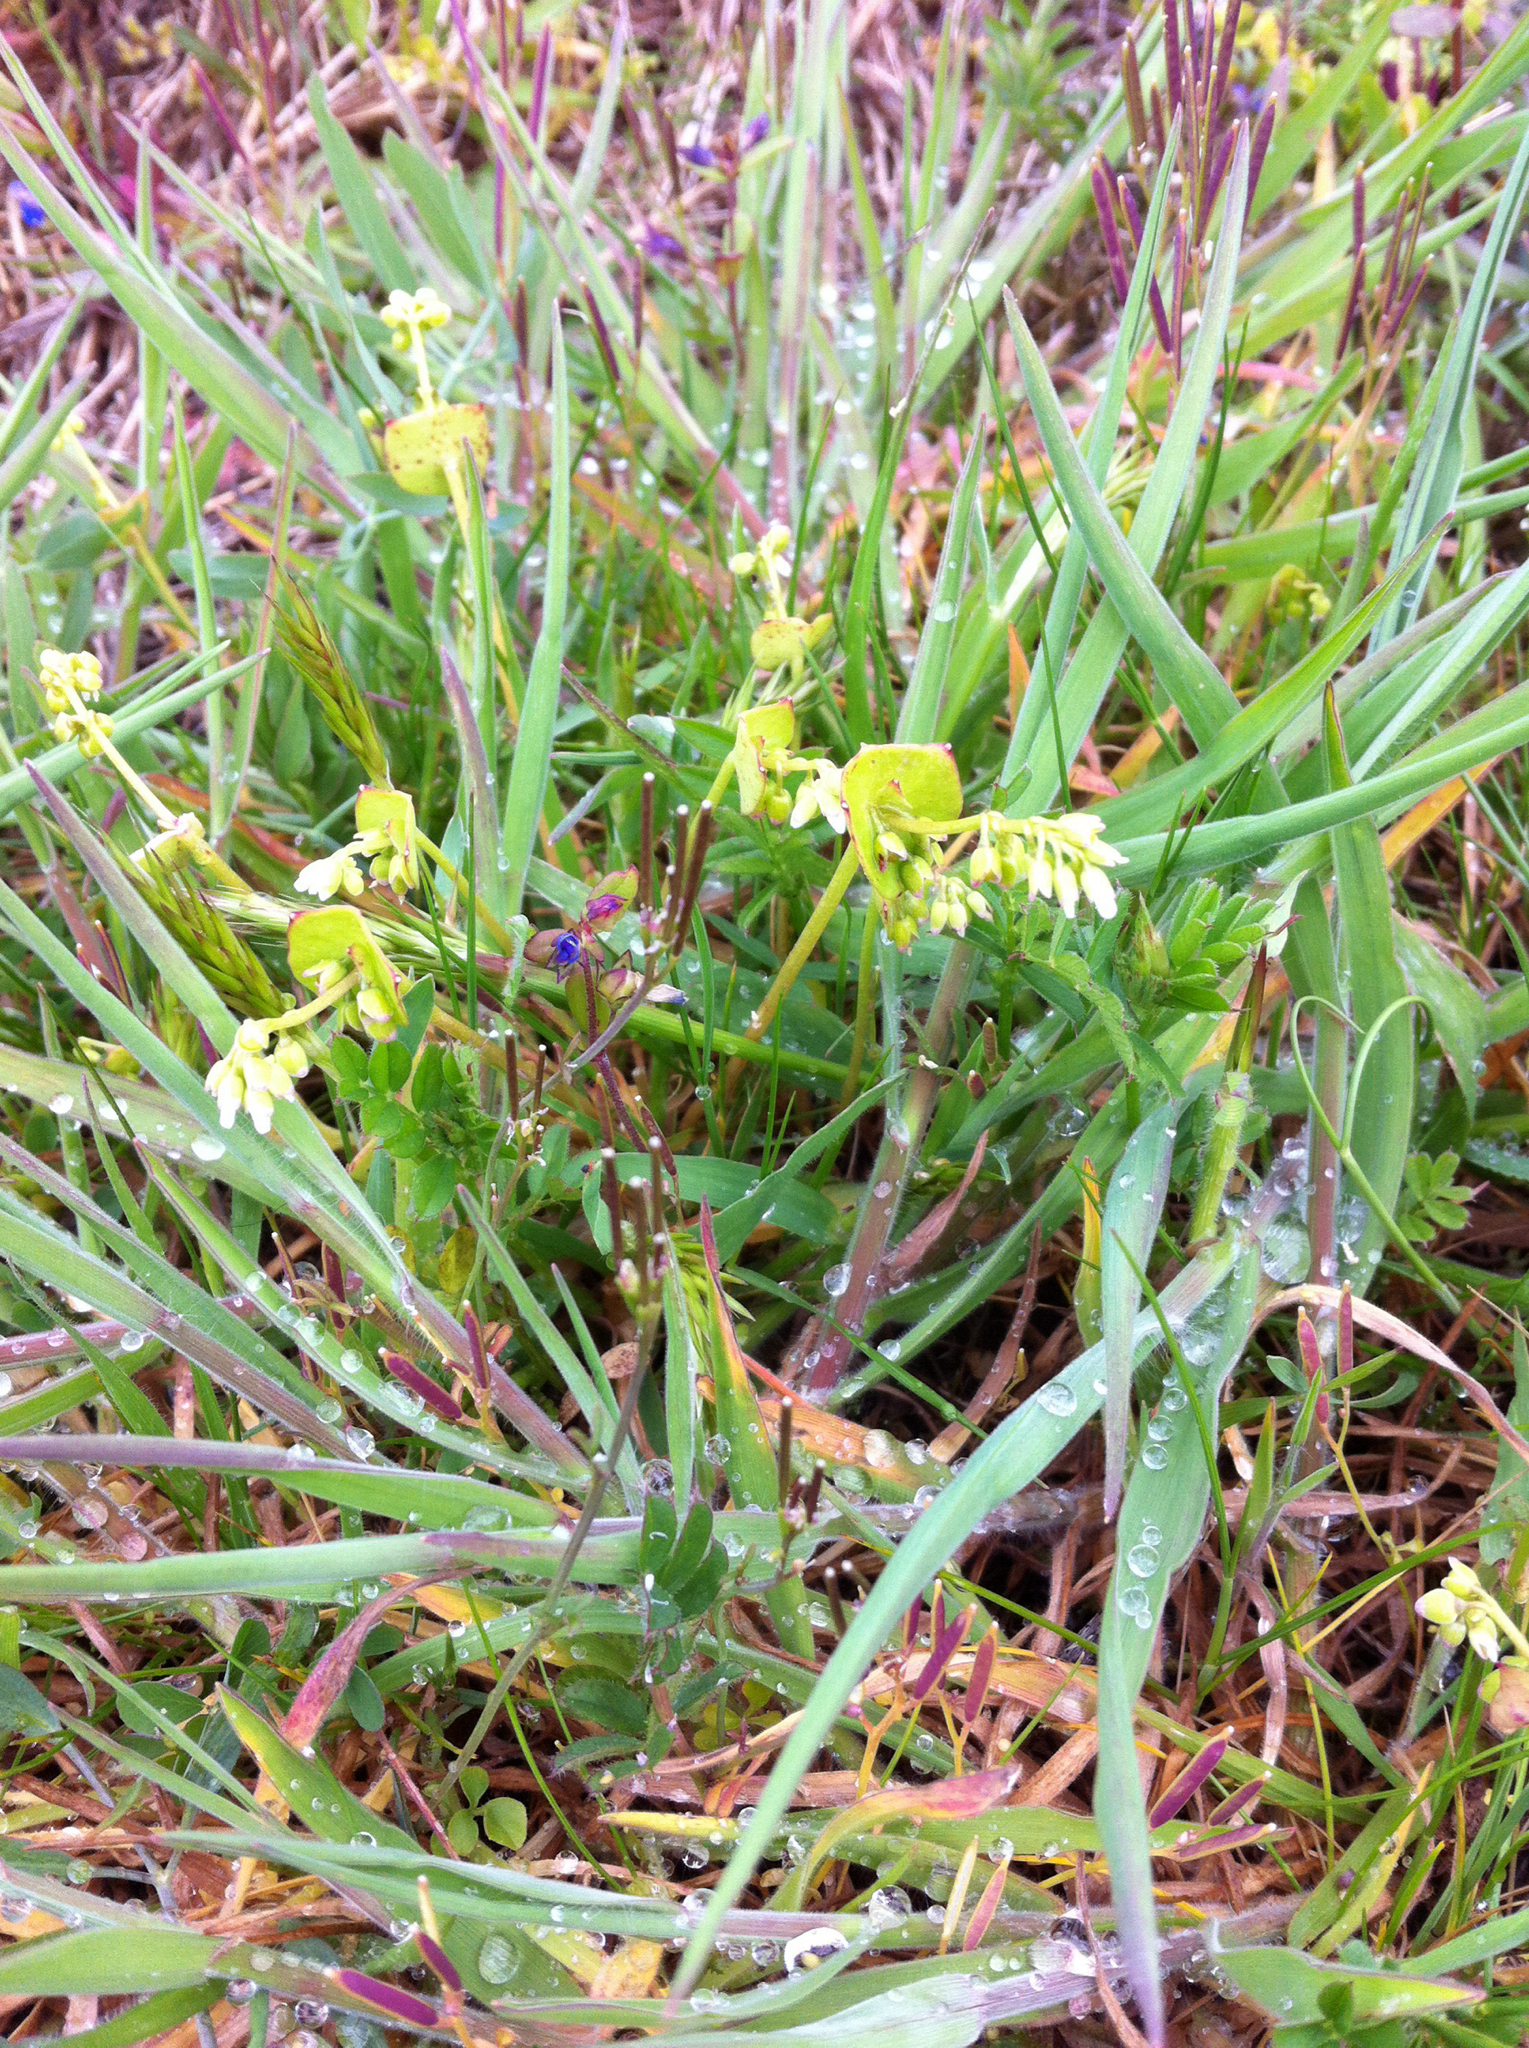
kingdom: Plantae
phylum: Tracheophyta
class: Magnoliopsida
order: Caryophyllales
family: Montiaceae
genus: Claytonia
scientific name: Claytonia perfoliata
